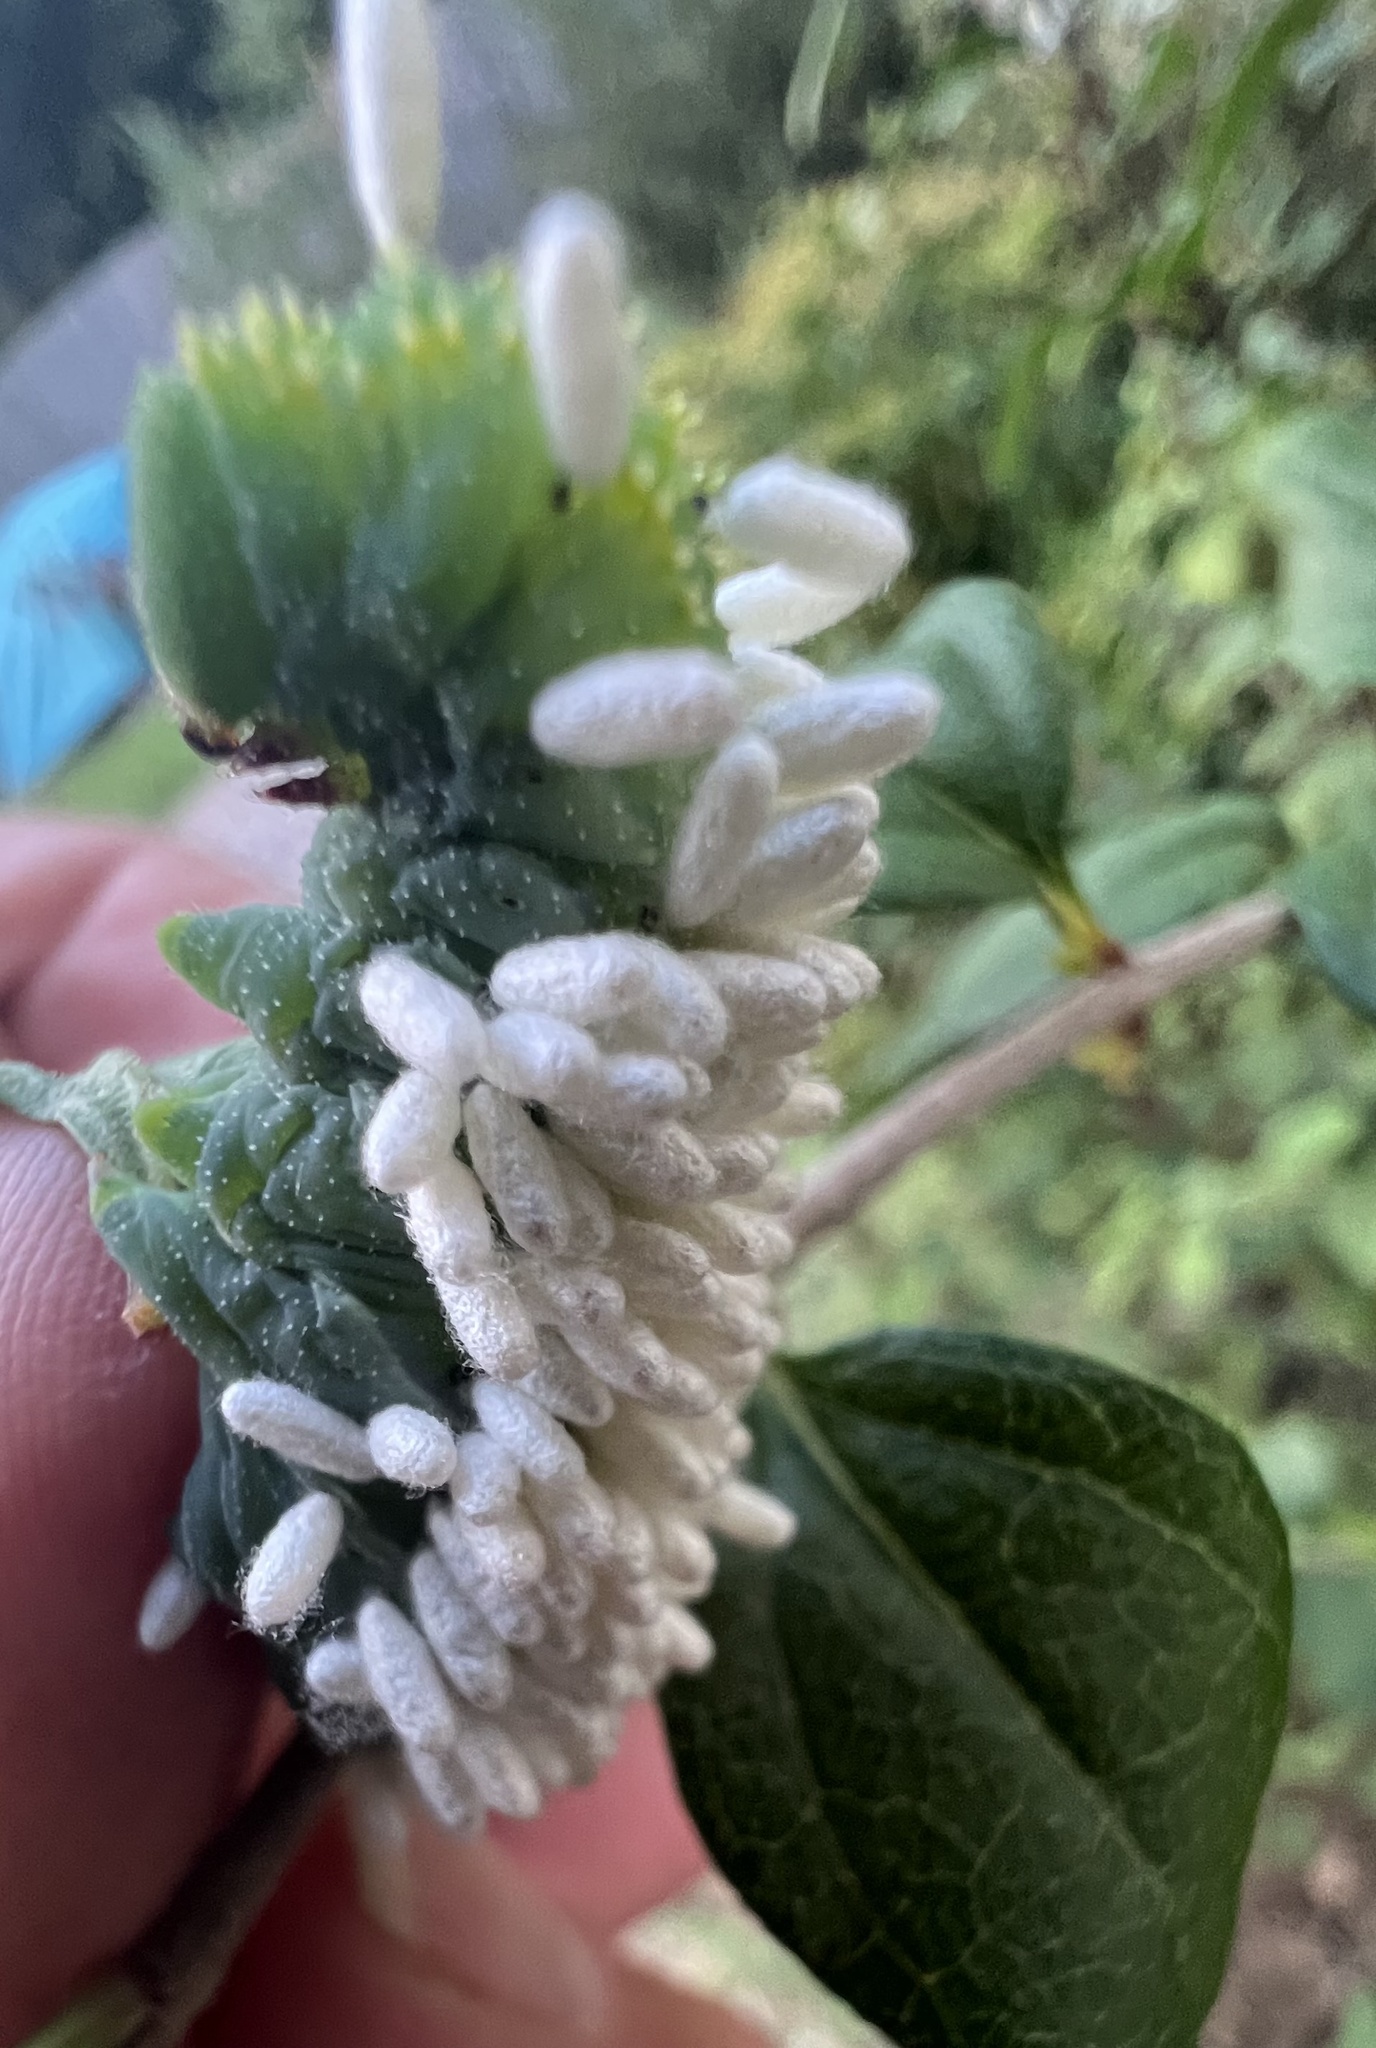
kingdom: Animalia
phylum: Arthropoda
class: Insecta
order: Hymenoptera
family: Braconidae
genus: Cotesia
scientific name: Cotesia congregata
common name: Hornworm parasitoid wasp
